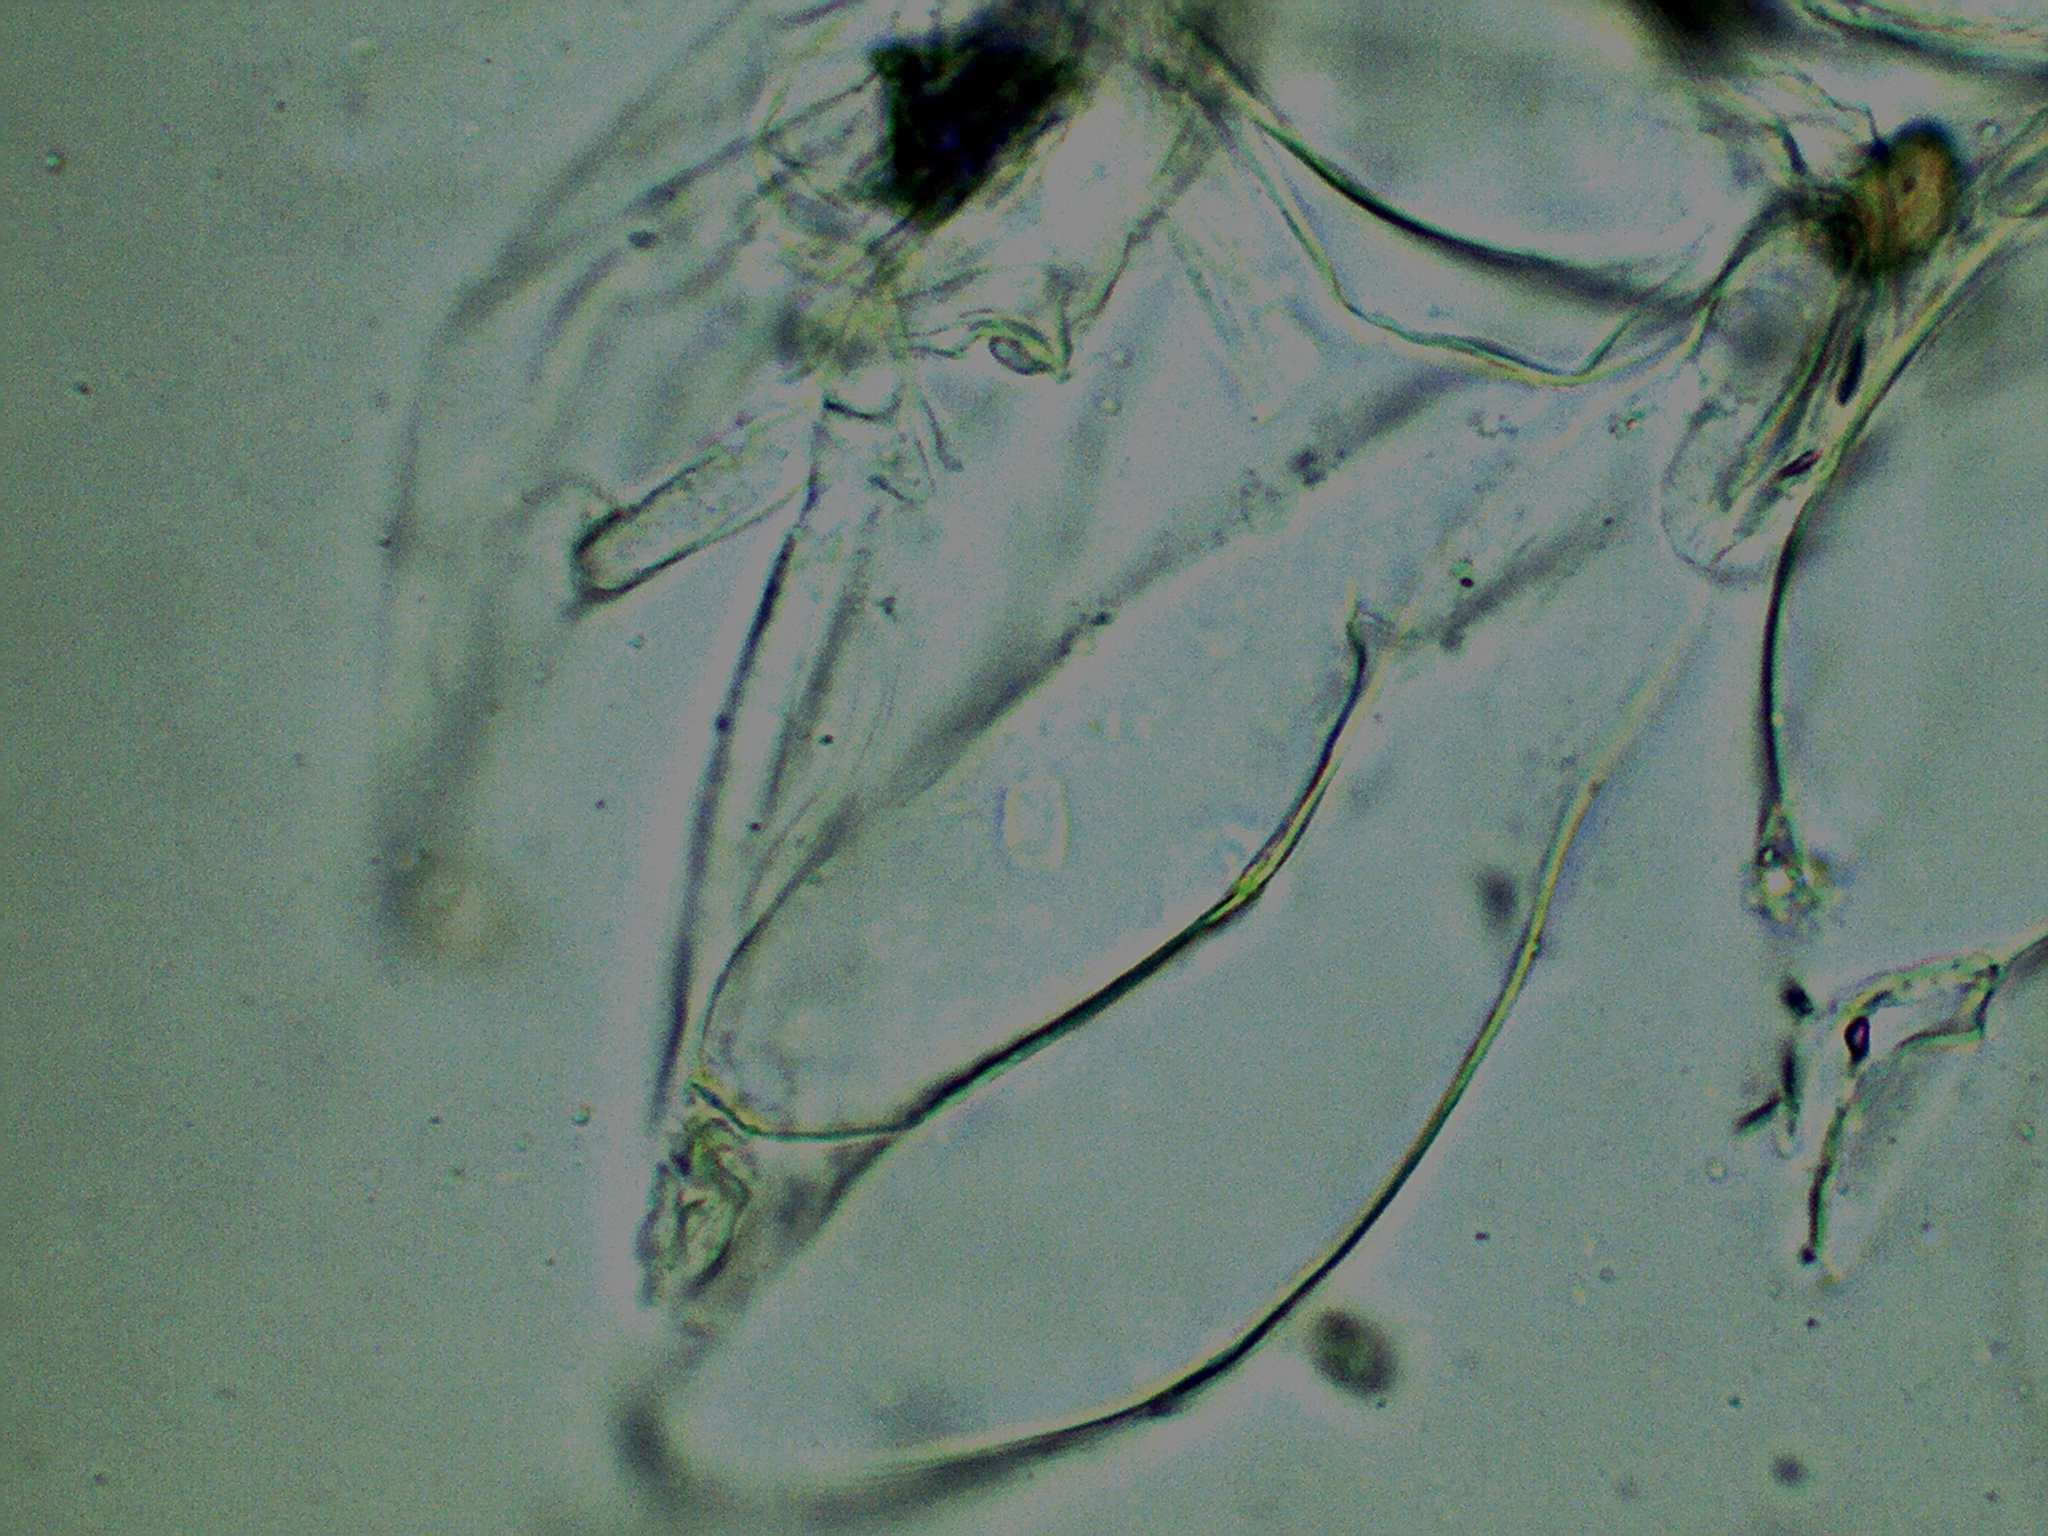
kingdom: Fungi
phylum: Basidiomycota
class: Agaricomycetes
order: Agaricales
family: Inocybaceae
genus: Inosperma
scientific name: Inosperma erubescens
